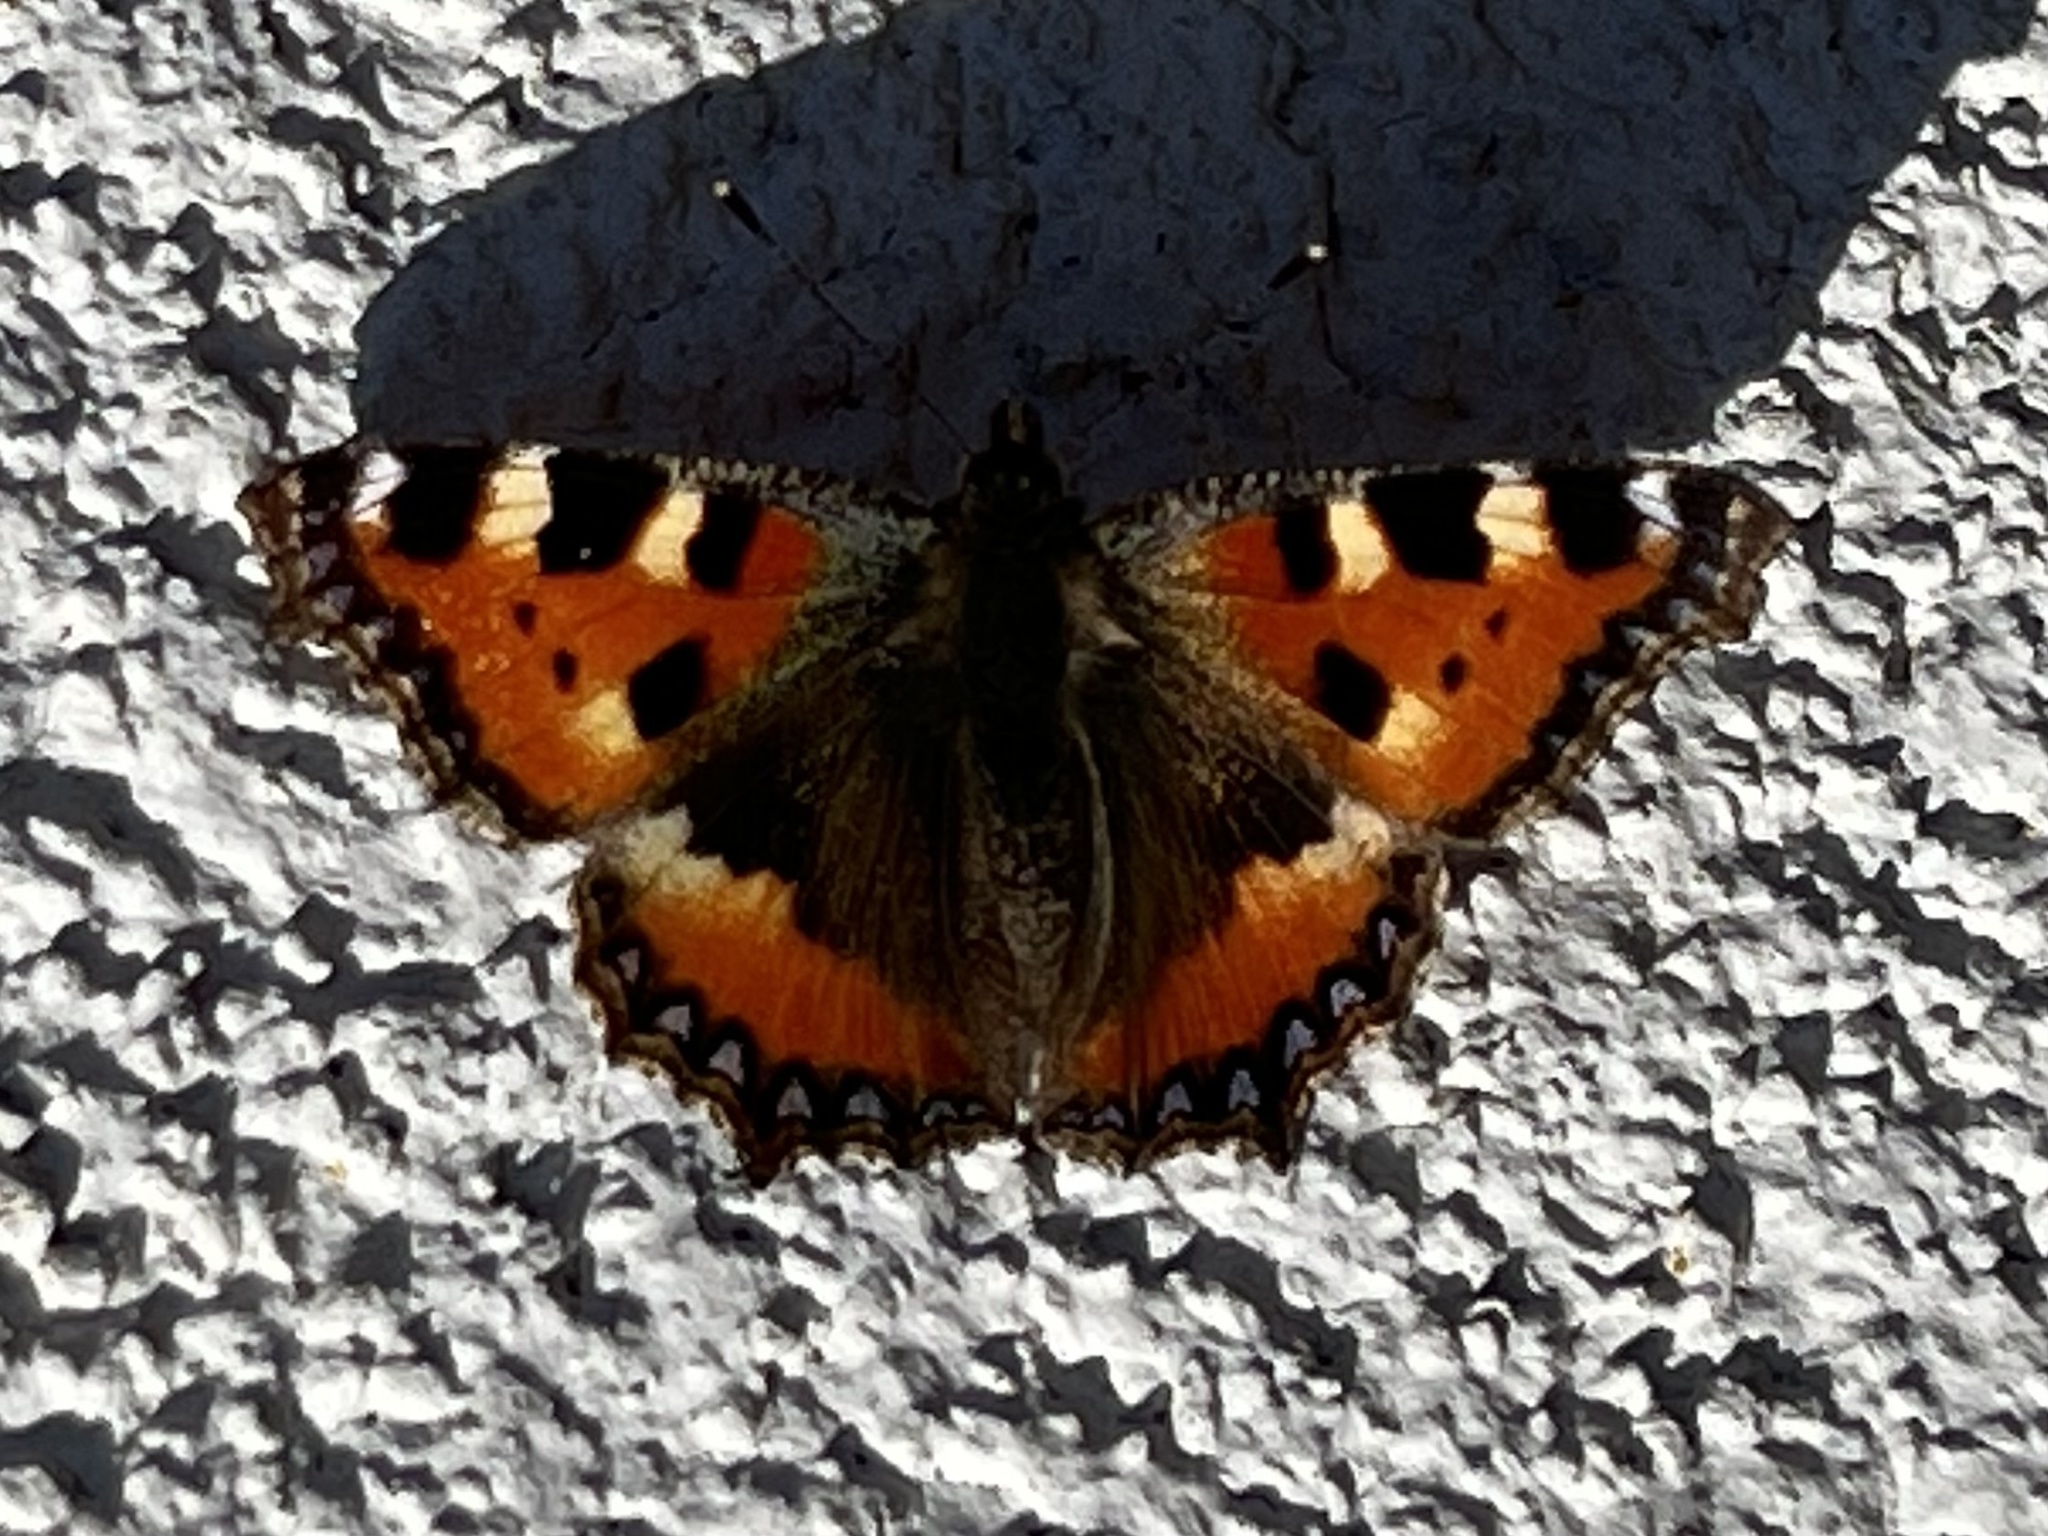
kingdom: Animalia
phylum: Arthropoda
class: Insecta
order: Lepidoptera
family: Nymphalidae
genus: Aglais
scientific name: Aglais urticae
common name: Small tortoiseshell
